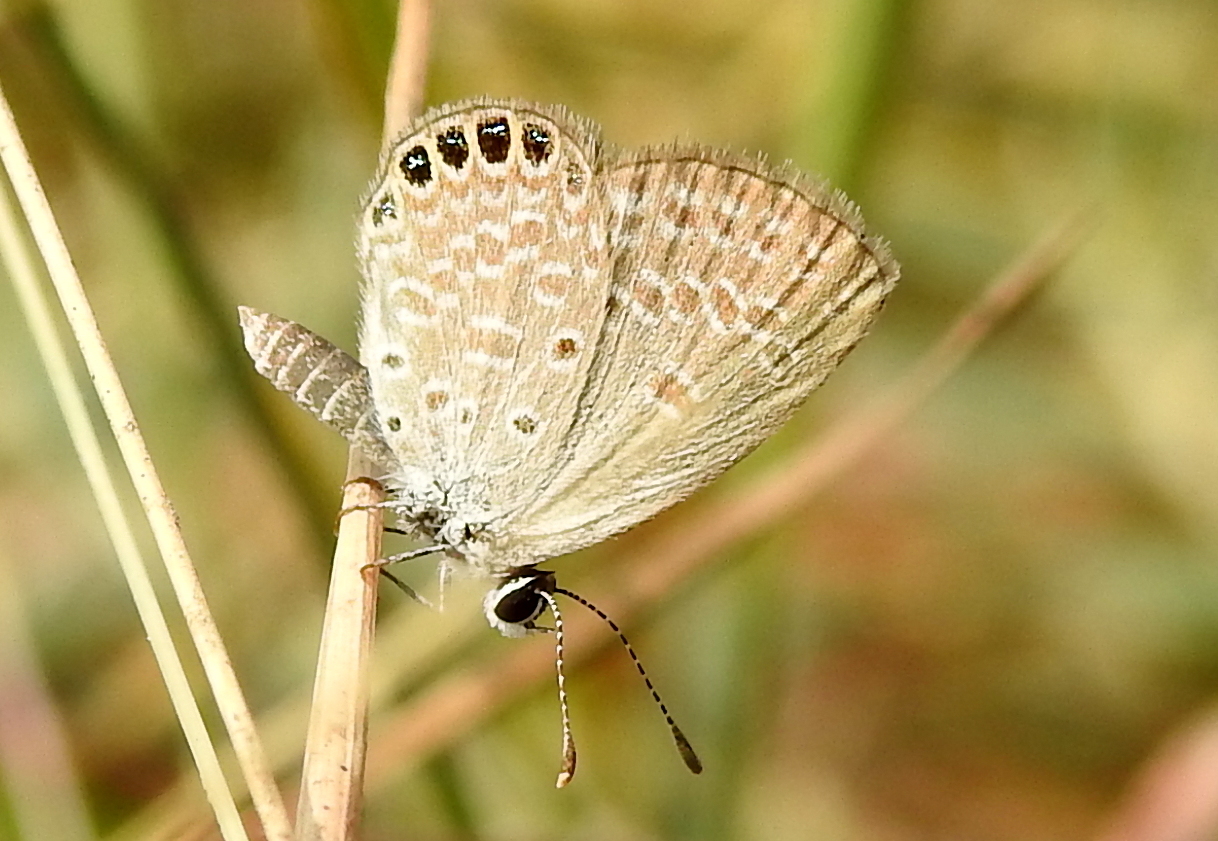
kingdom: Animalia
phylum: Arthropoda
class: Insecta
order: Lepidoptera
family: Lycaenidae
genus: Freyeria
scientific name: Freyeria putli
